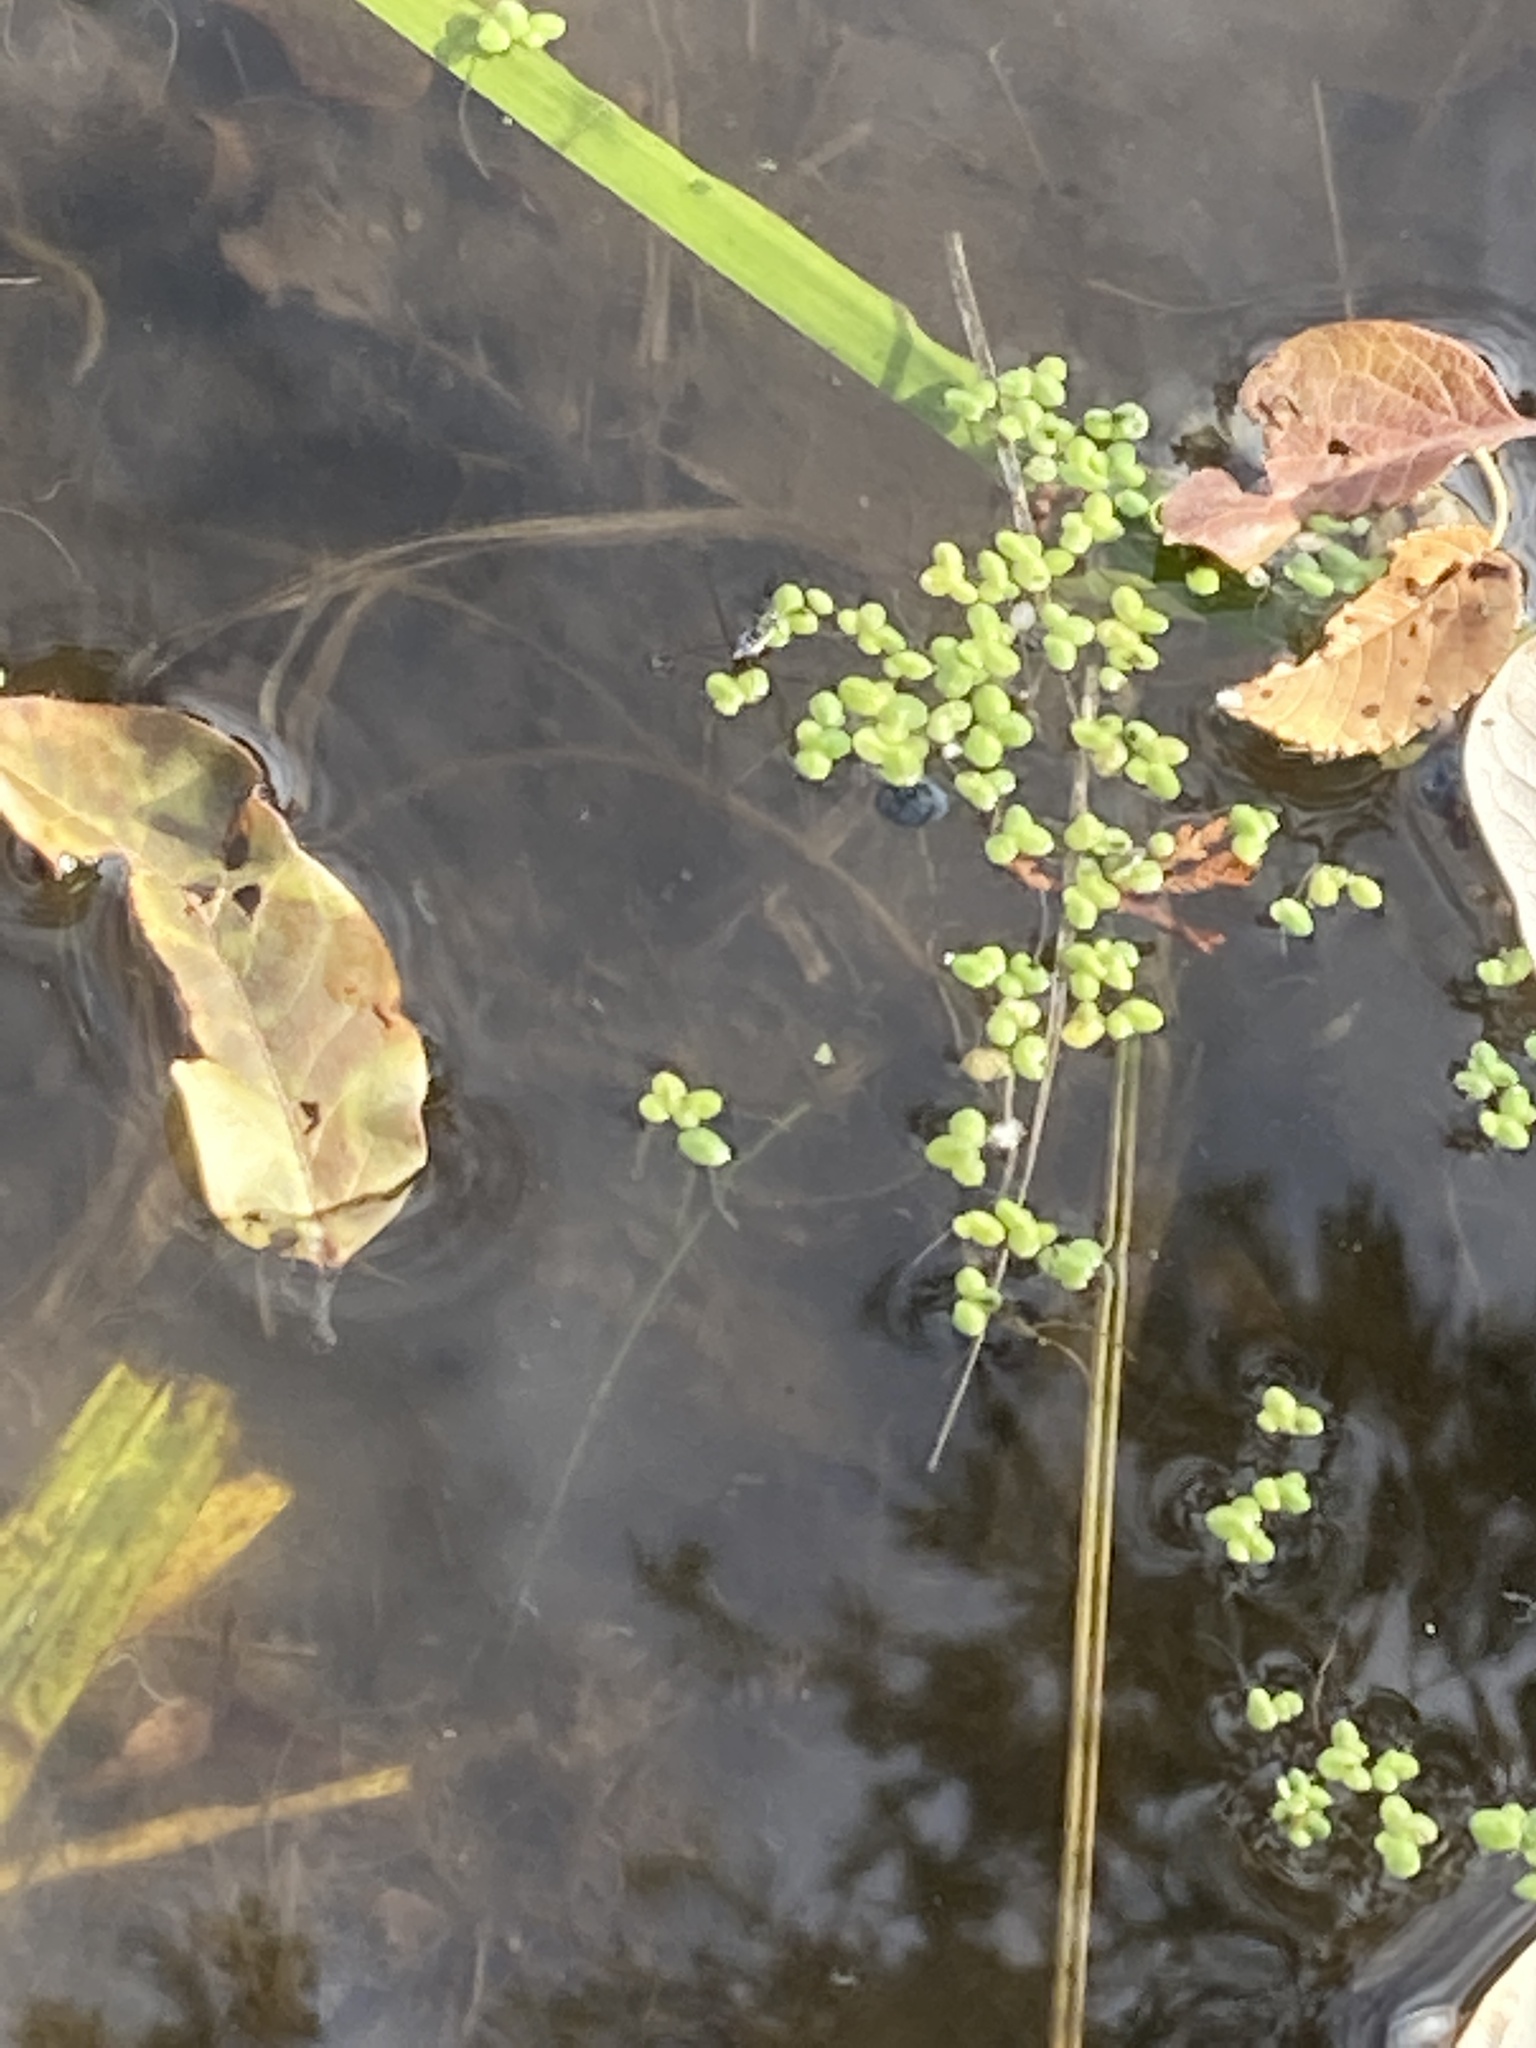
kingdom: Plantae
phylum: Tracheophyta
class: Liliopsida
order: Alismatales
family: Araceae
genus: Lemna
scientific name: Lemna minor
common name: Common duckweed
